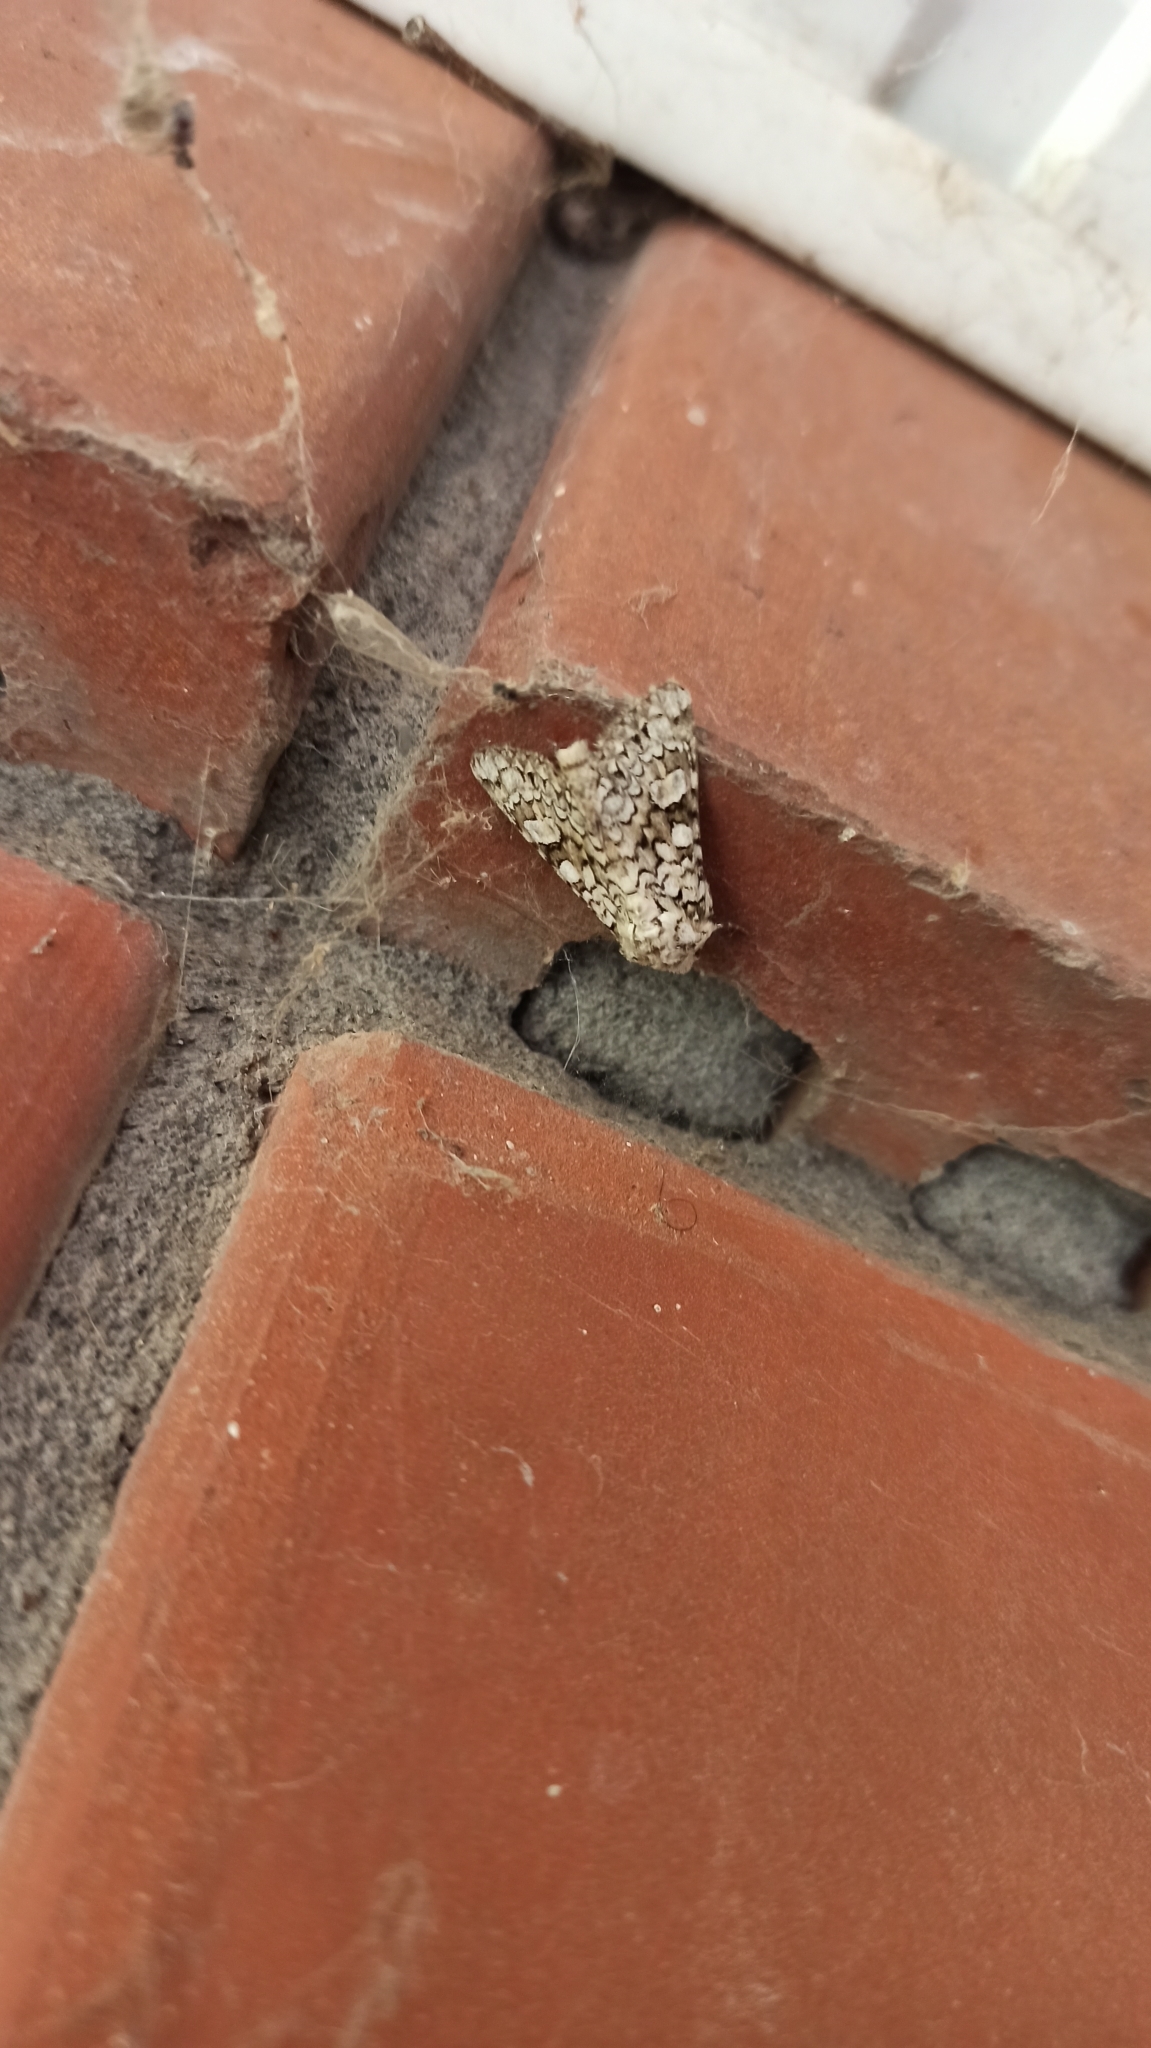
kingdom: Animalia
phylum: Arthropoda
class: Insecta
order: Lepidoptera
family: Noctuidae
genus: Hecatera
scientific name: Hecatera cappa
